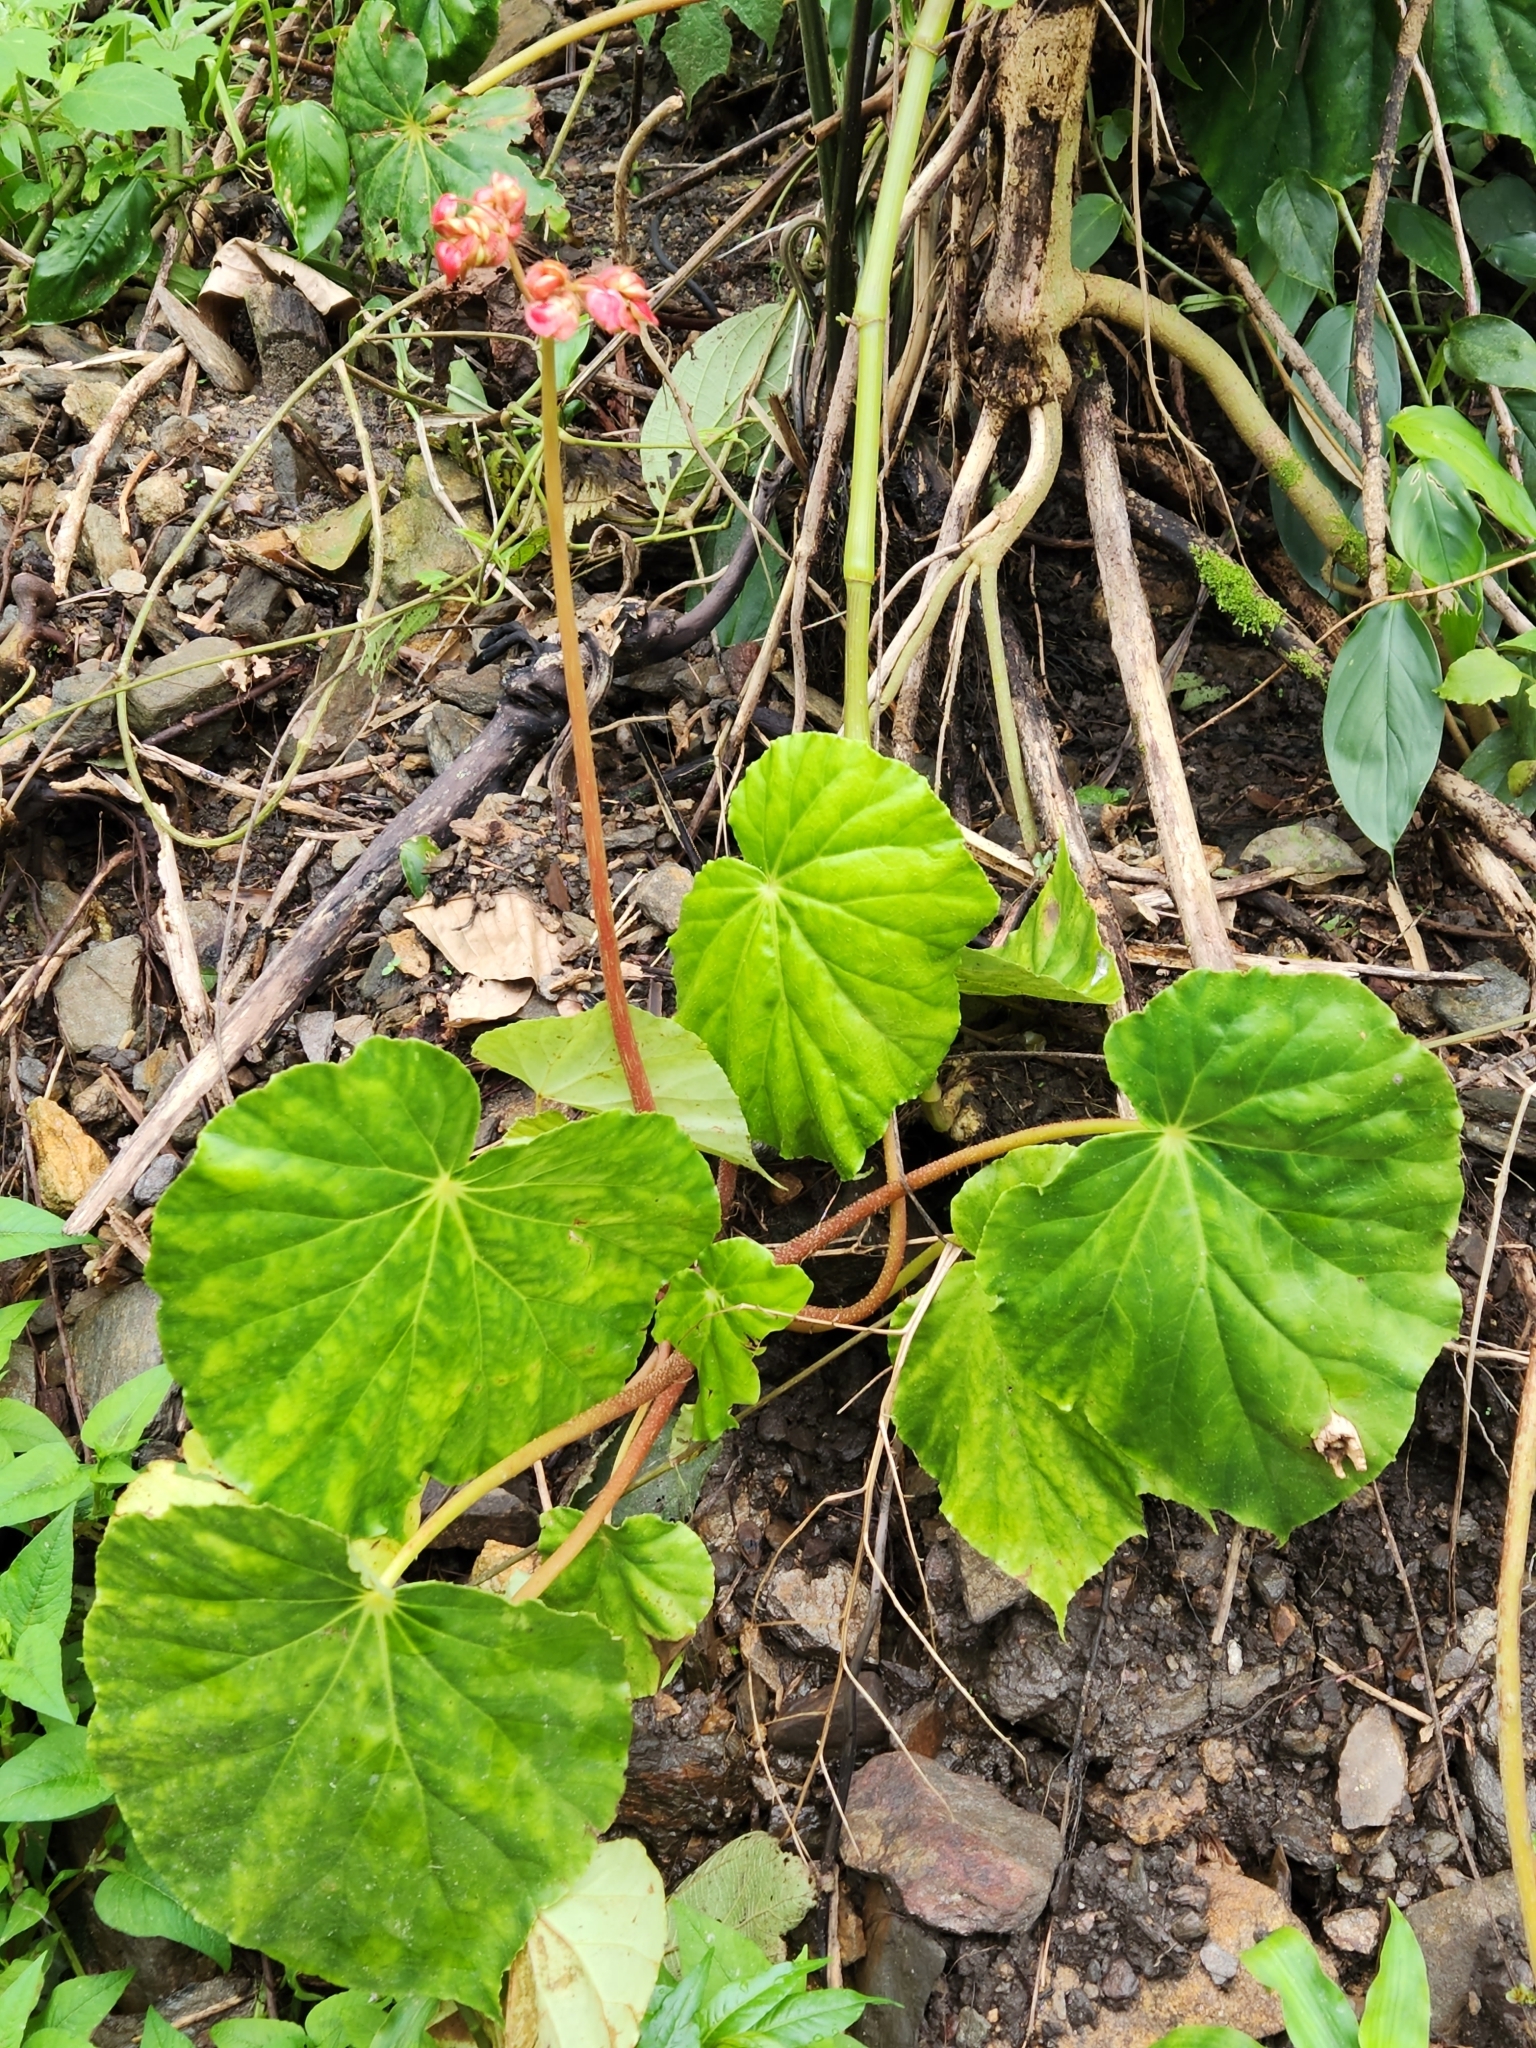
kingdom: Plantae
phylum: Tracheophyta
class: Magnoliopsida
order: Cucurbitales
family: Begoniaceae
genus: Begonia
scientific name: Begonia urophylla
